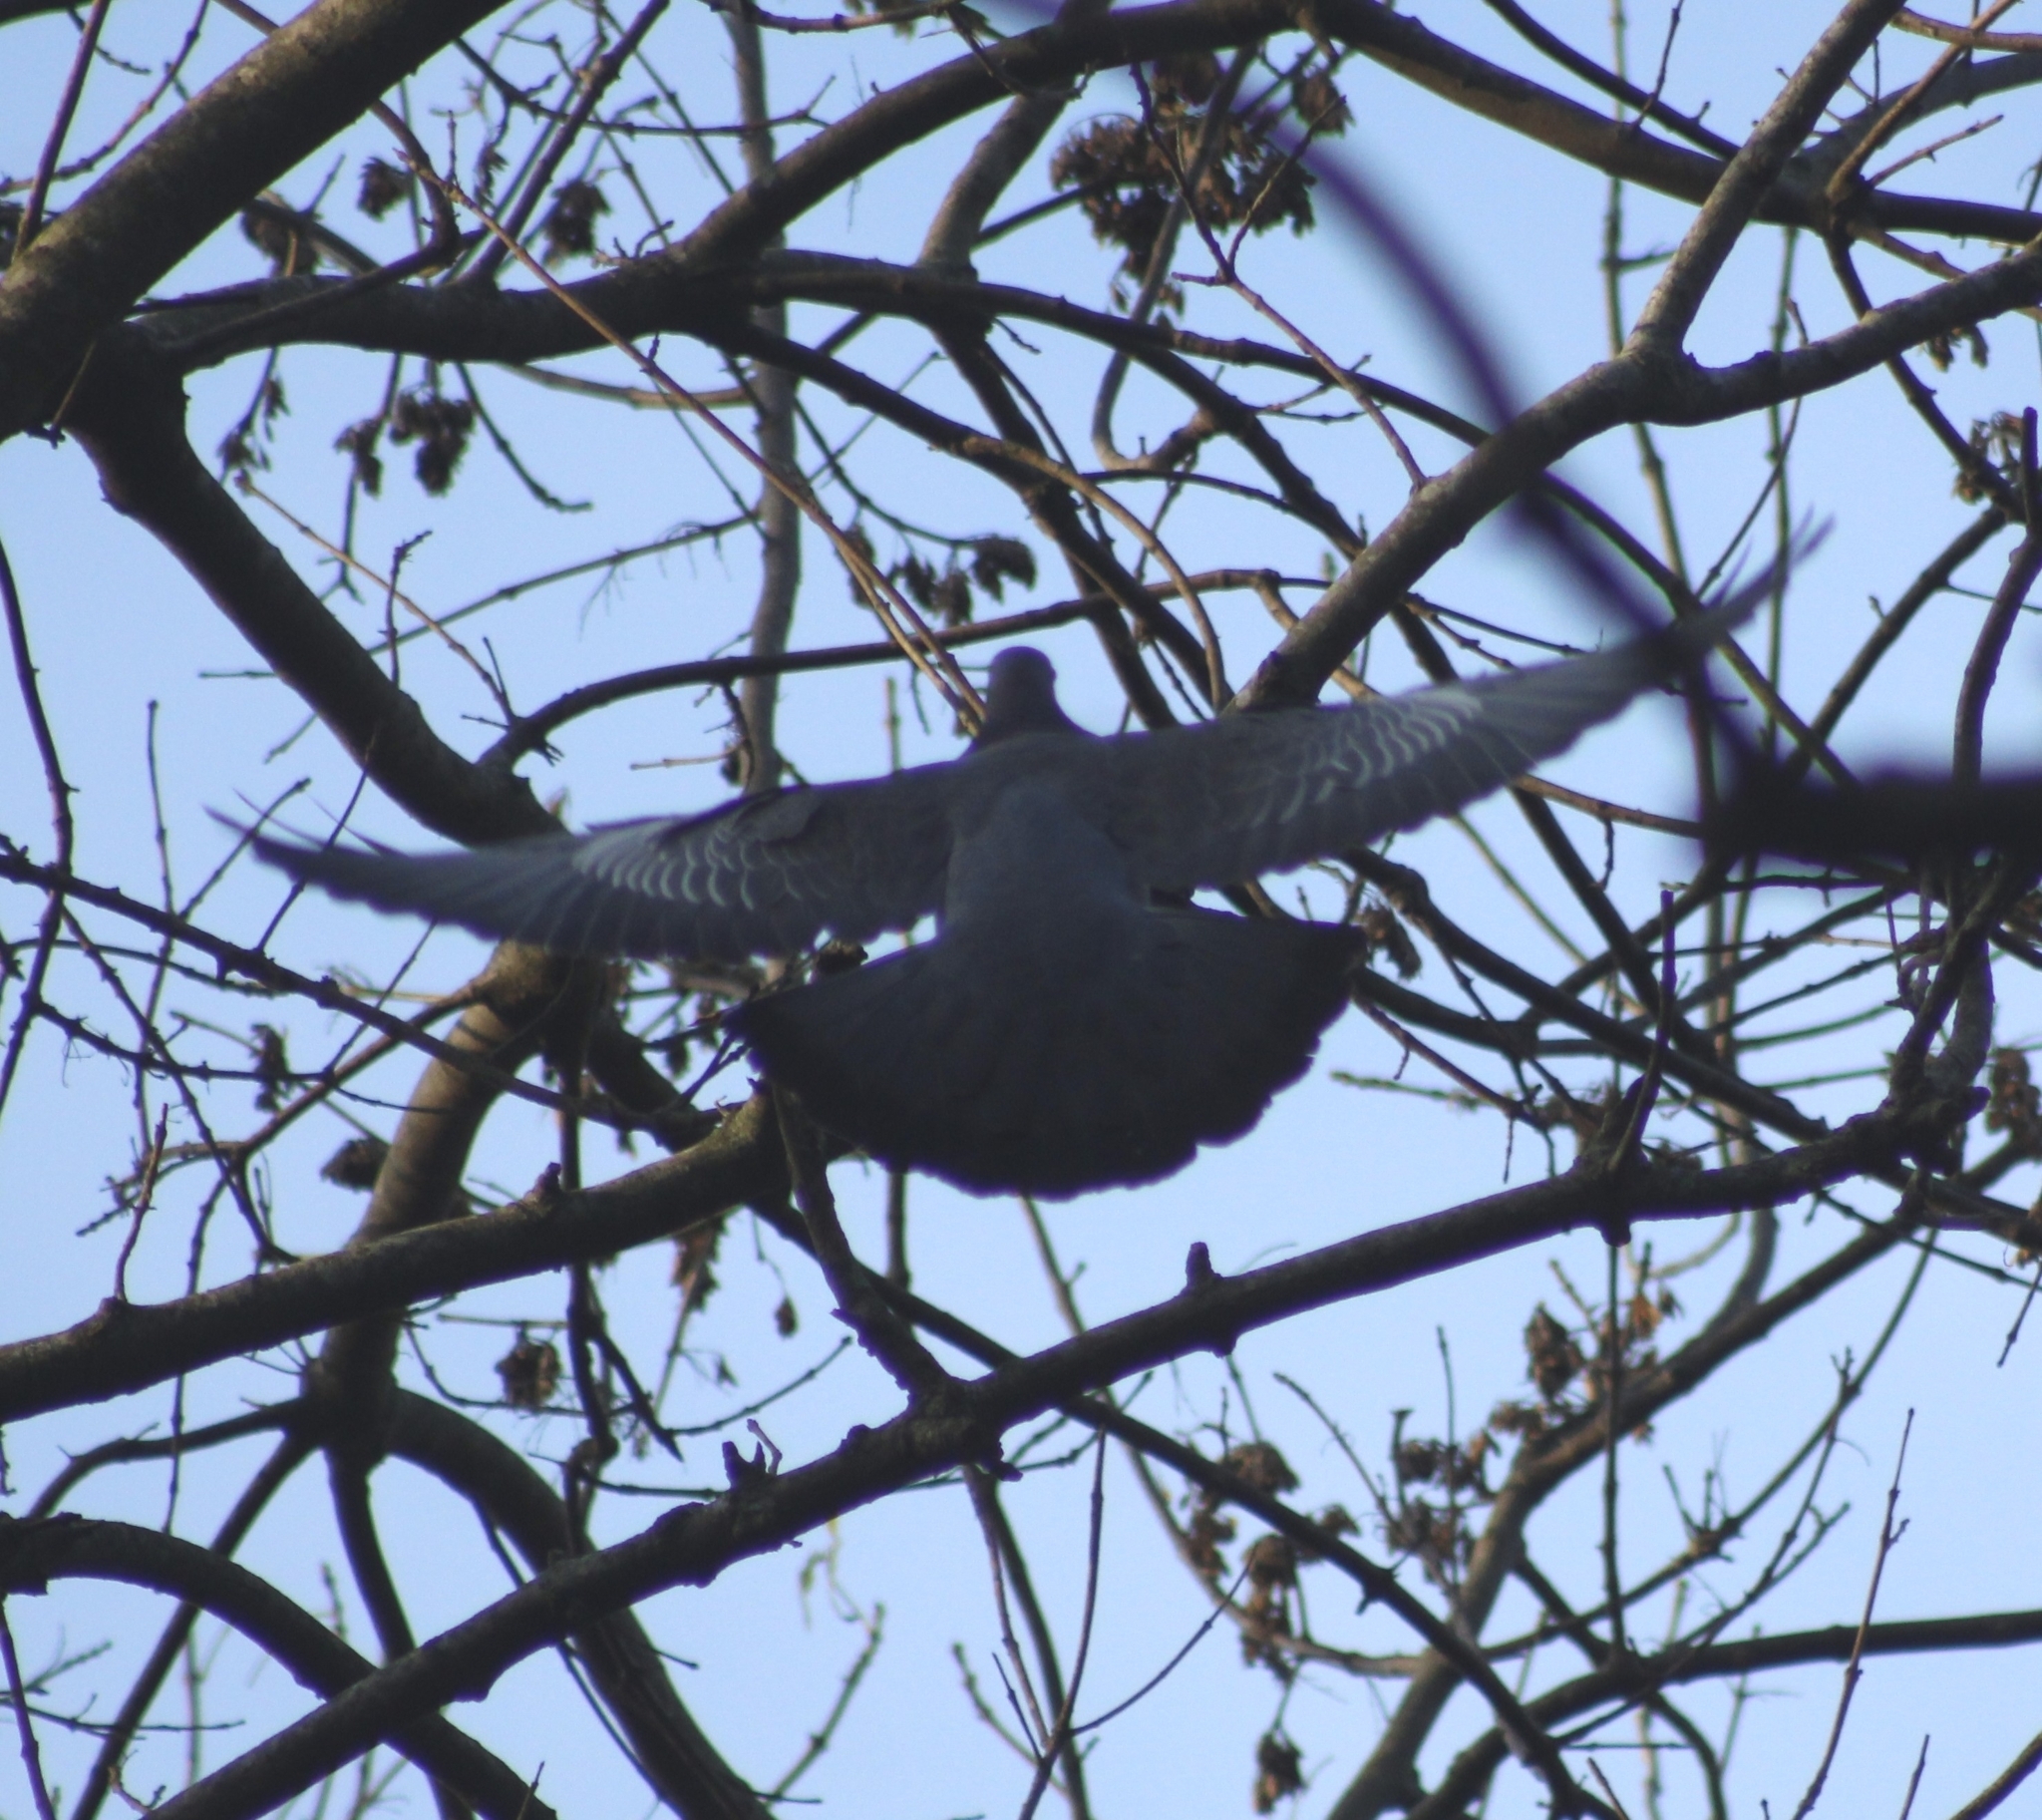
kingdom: Animalia
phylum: Chordata
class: Aves
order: Columbiformes
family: Columbidae
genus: Patagioenas
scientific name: Patagioenas picazuro
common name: Picazuro pigeon
